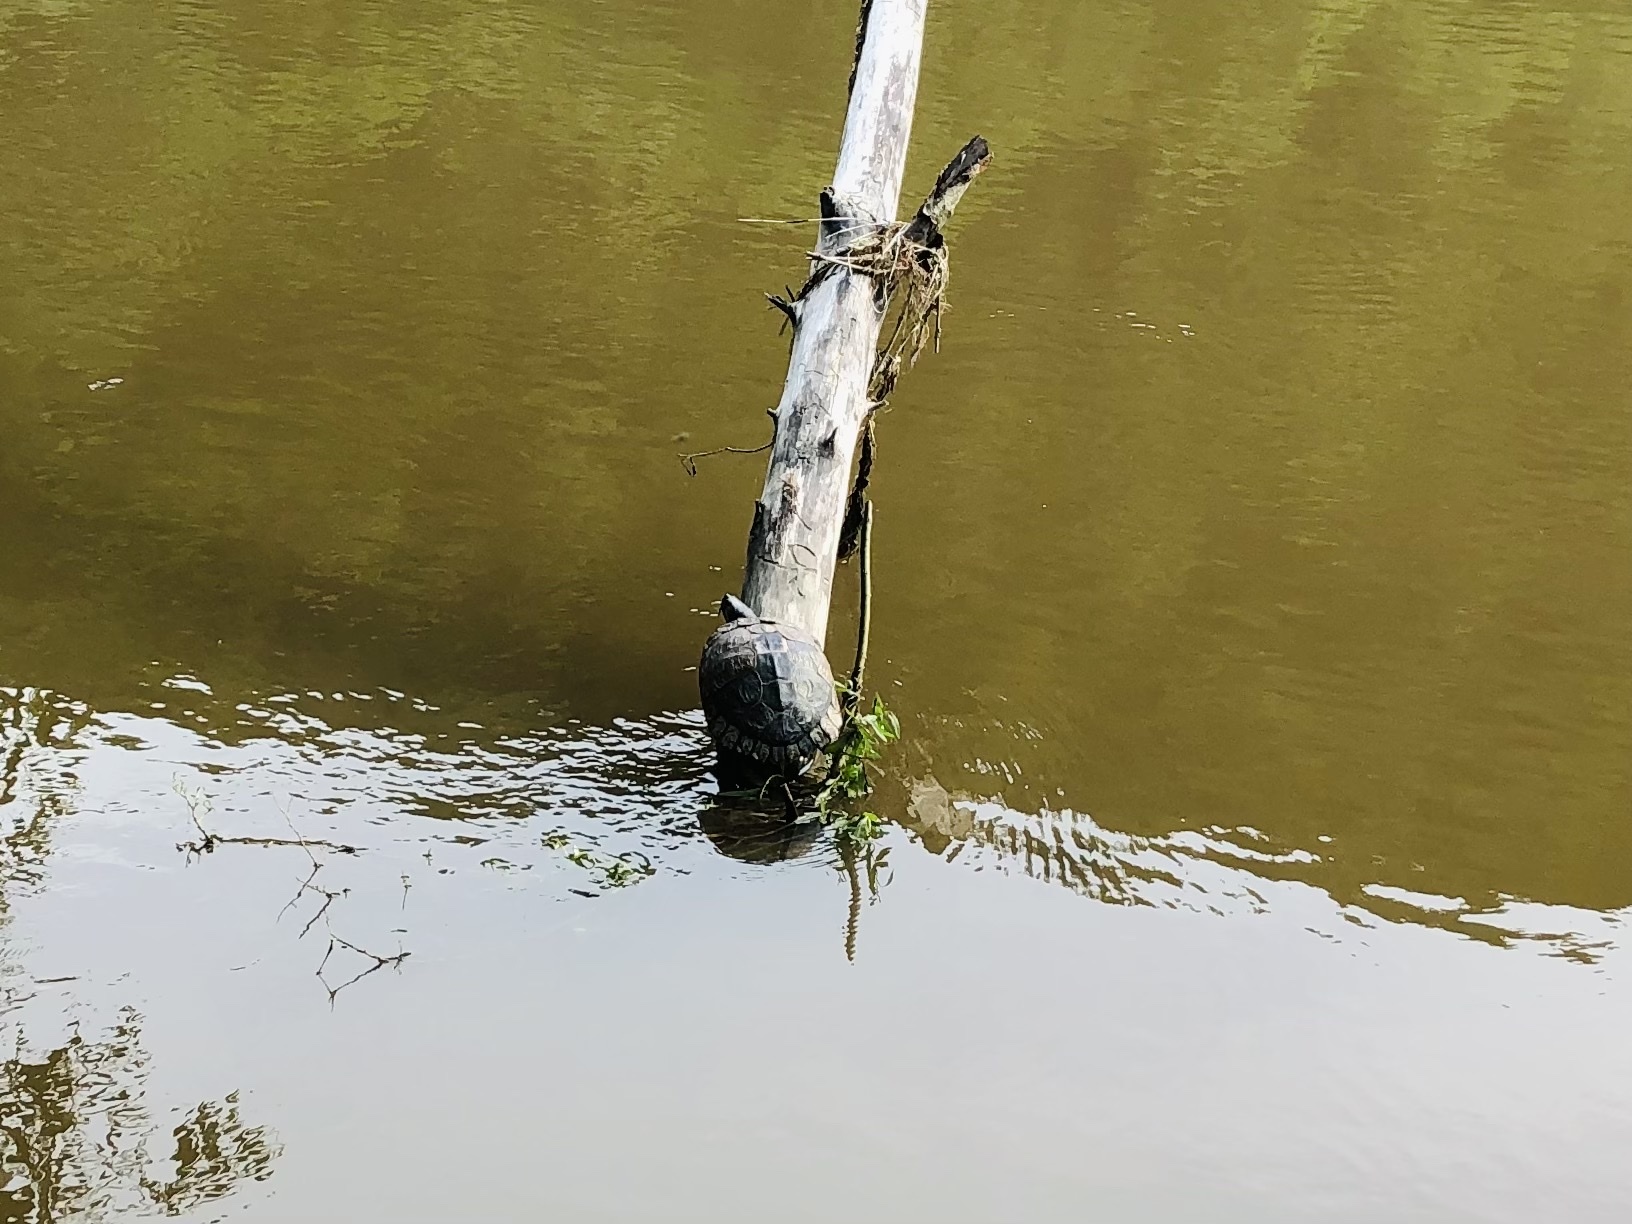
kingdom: Animalia
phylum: Chordata
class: Testudines
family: Emydidae
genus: Trachemys
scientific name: Trachemys scripta
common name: Slider
